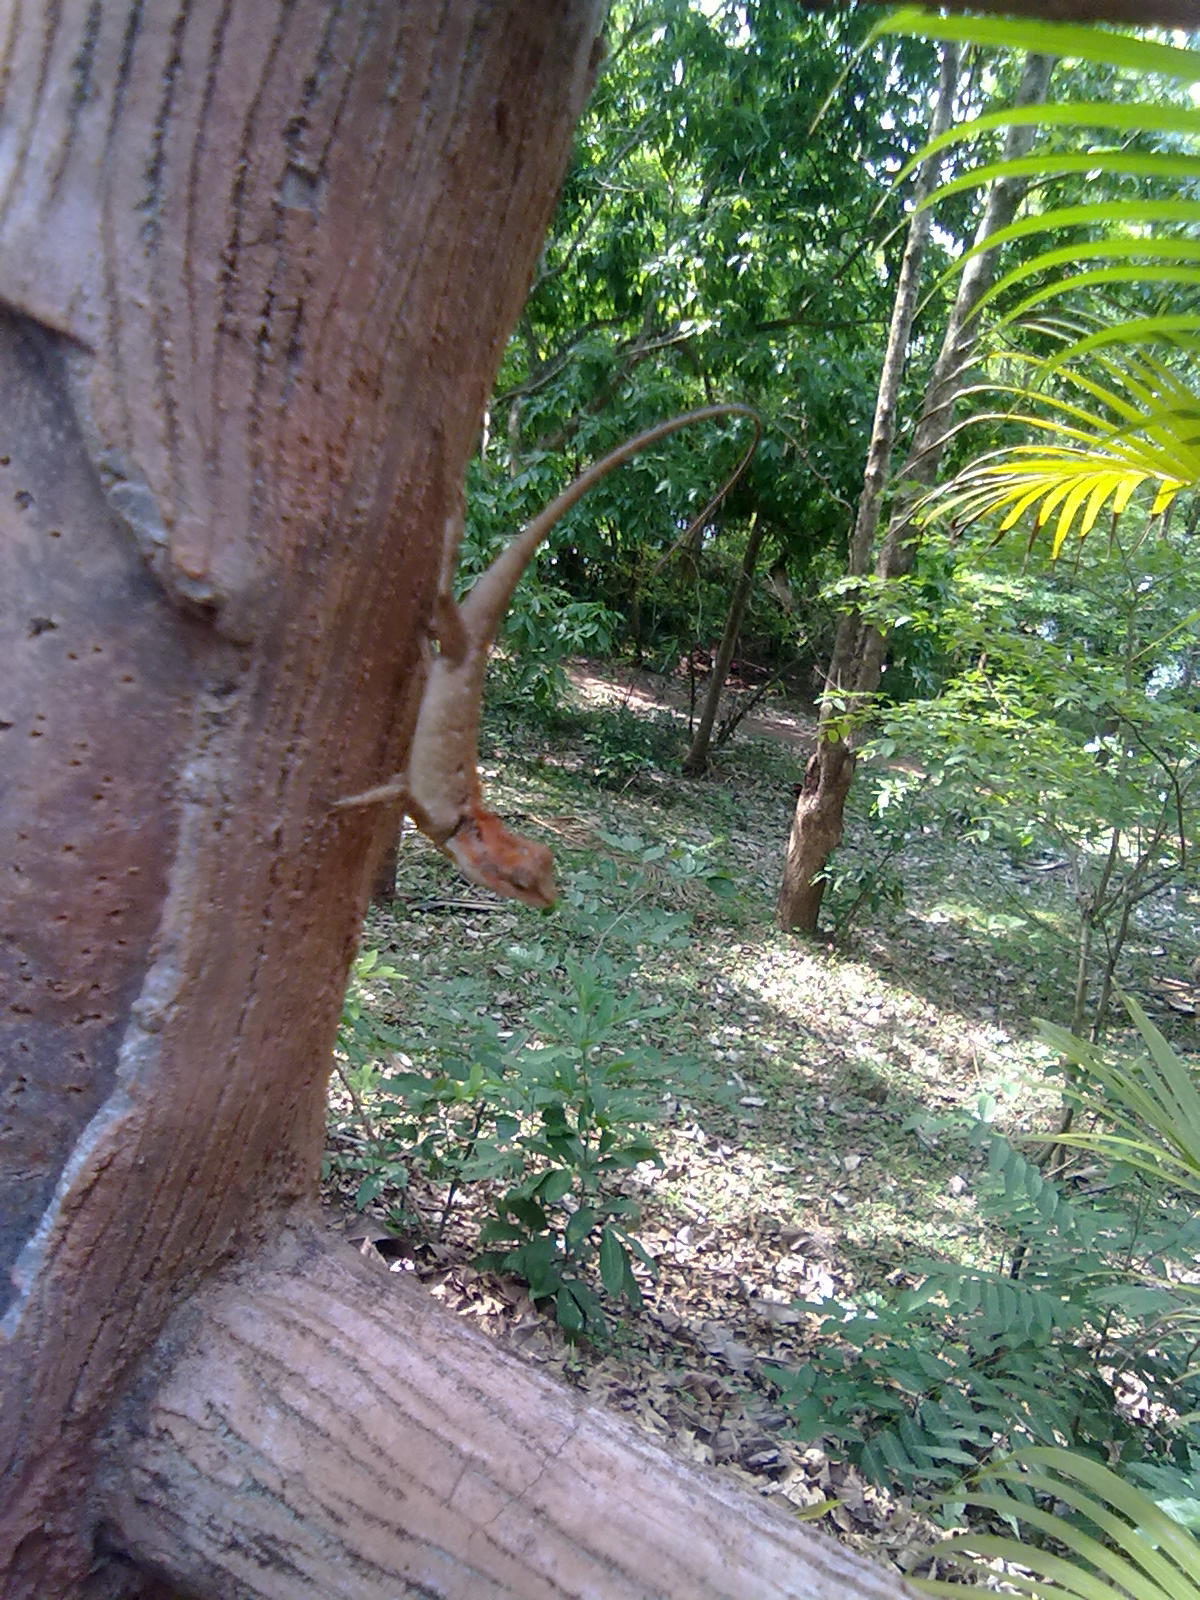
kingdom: Animalia
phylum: Chordata
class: Squamata
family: Agamidae
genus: Monilesaurus
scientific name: Monilesaurus rouxii
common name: Roux's forest lizard
